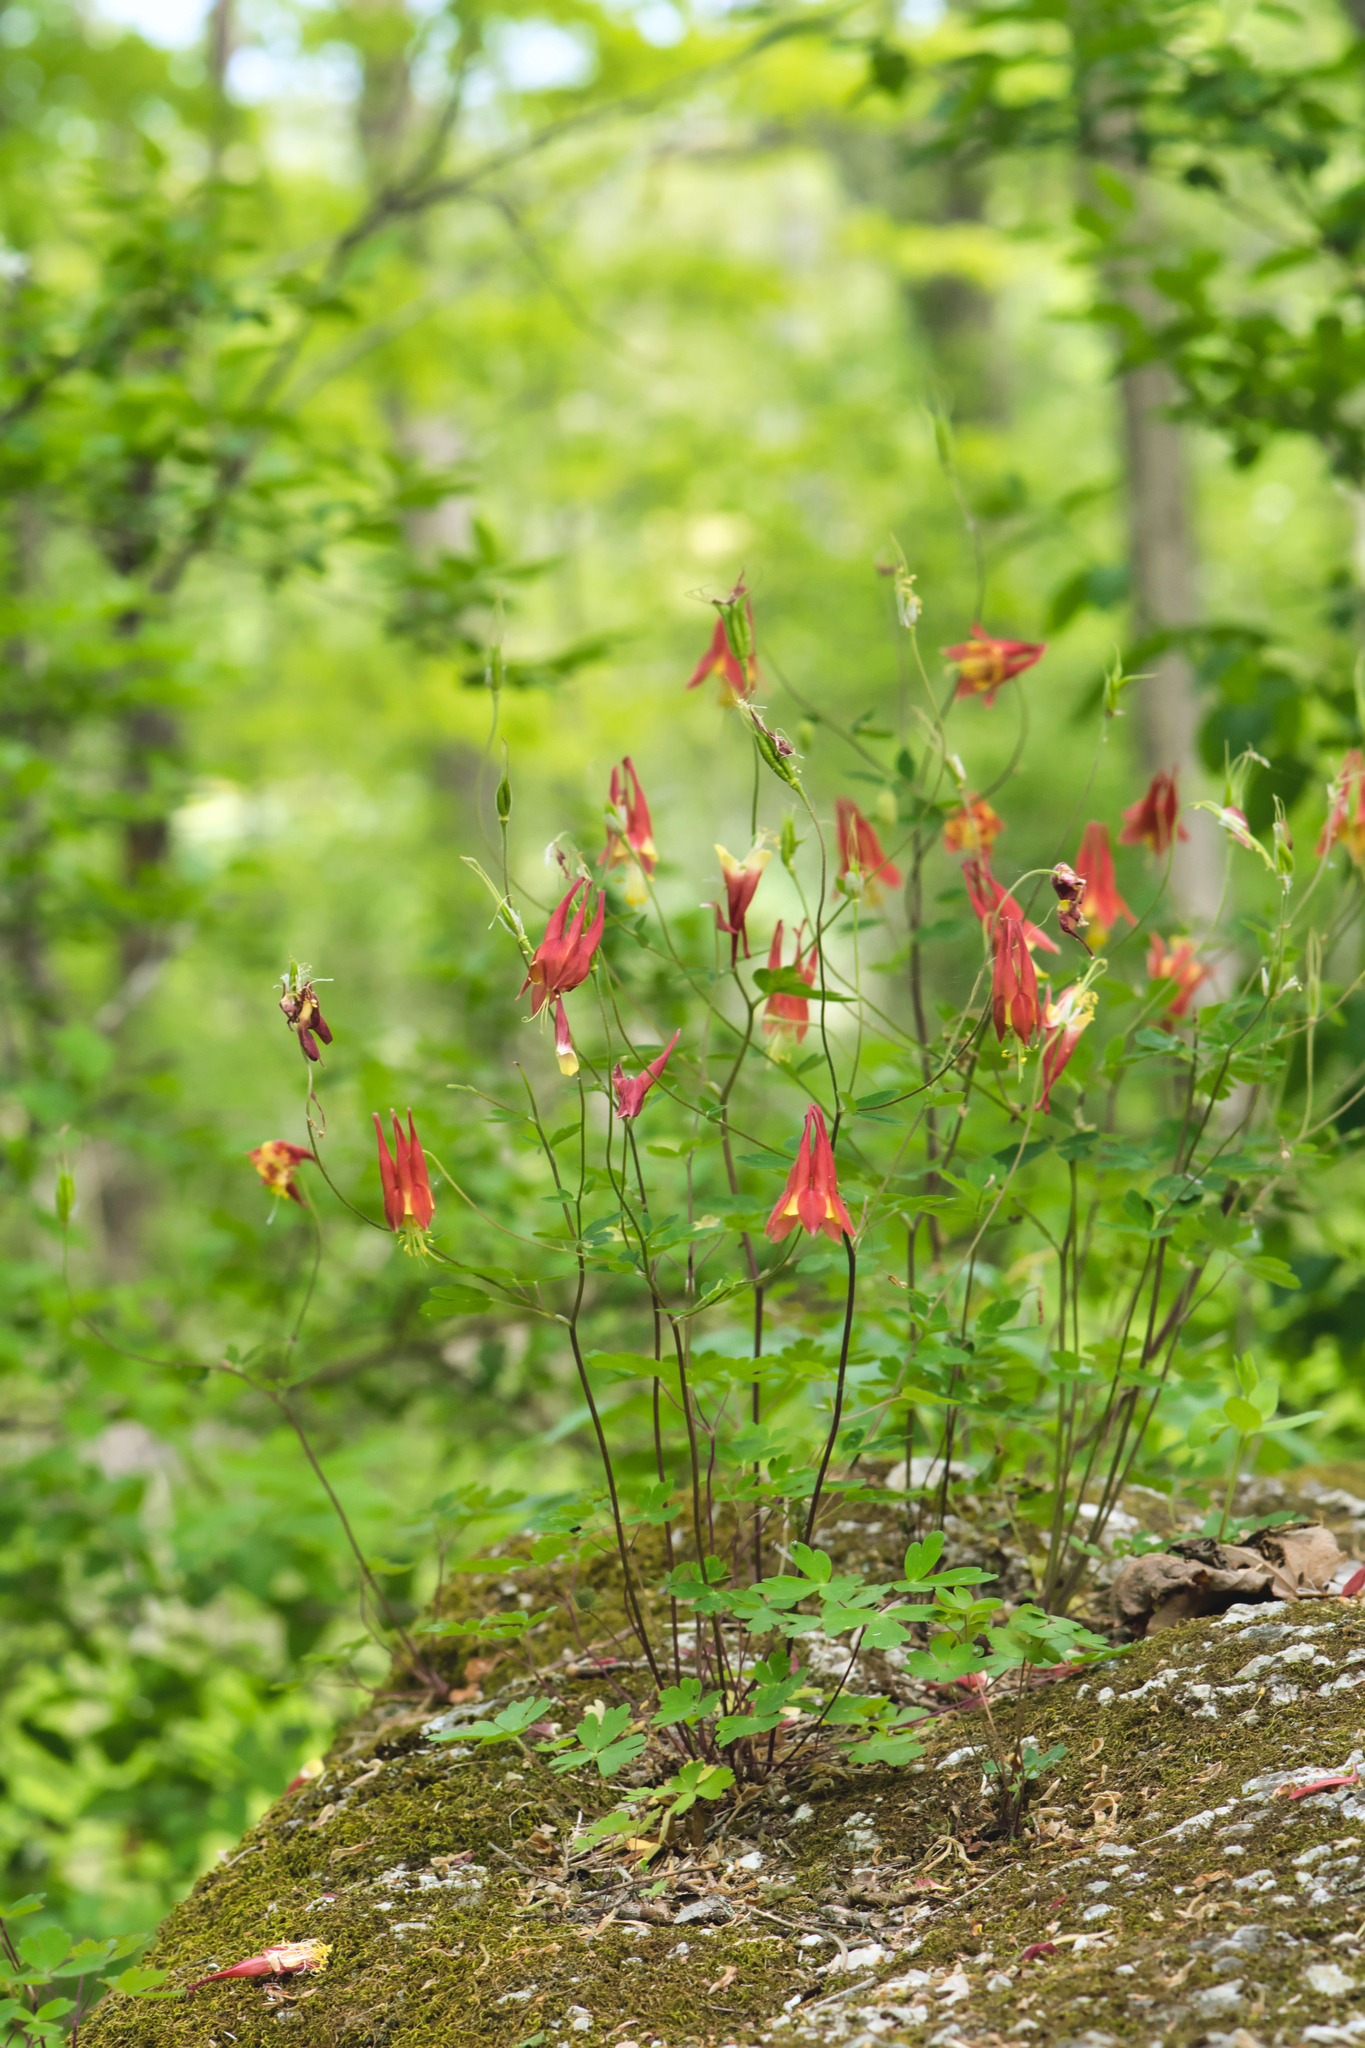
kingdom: Plantae
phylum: Tracheophyta
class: Magnoliopsida
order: Ranunculales
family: Ranunculaceae
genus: Aquilegia
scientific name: Aquilegia canadensis
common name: American columbine
